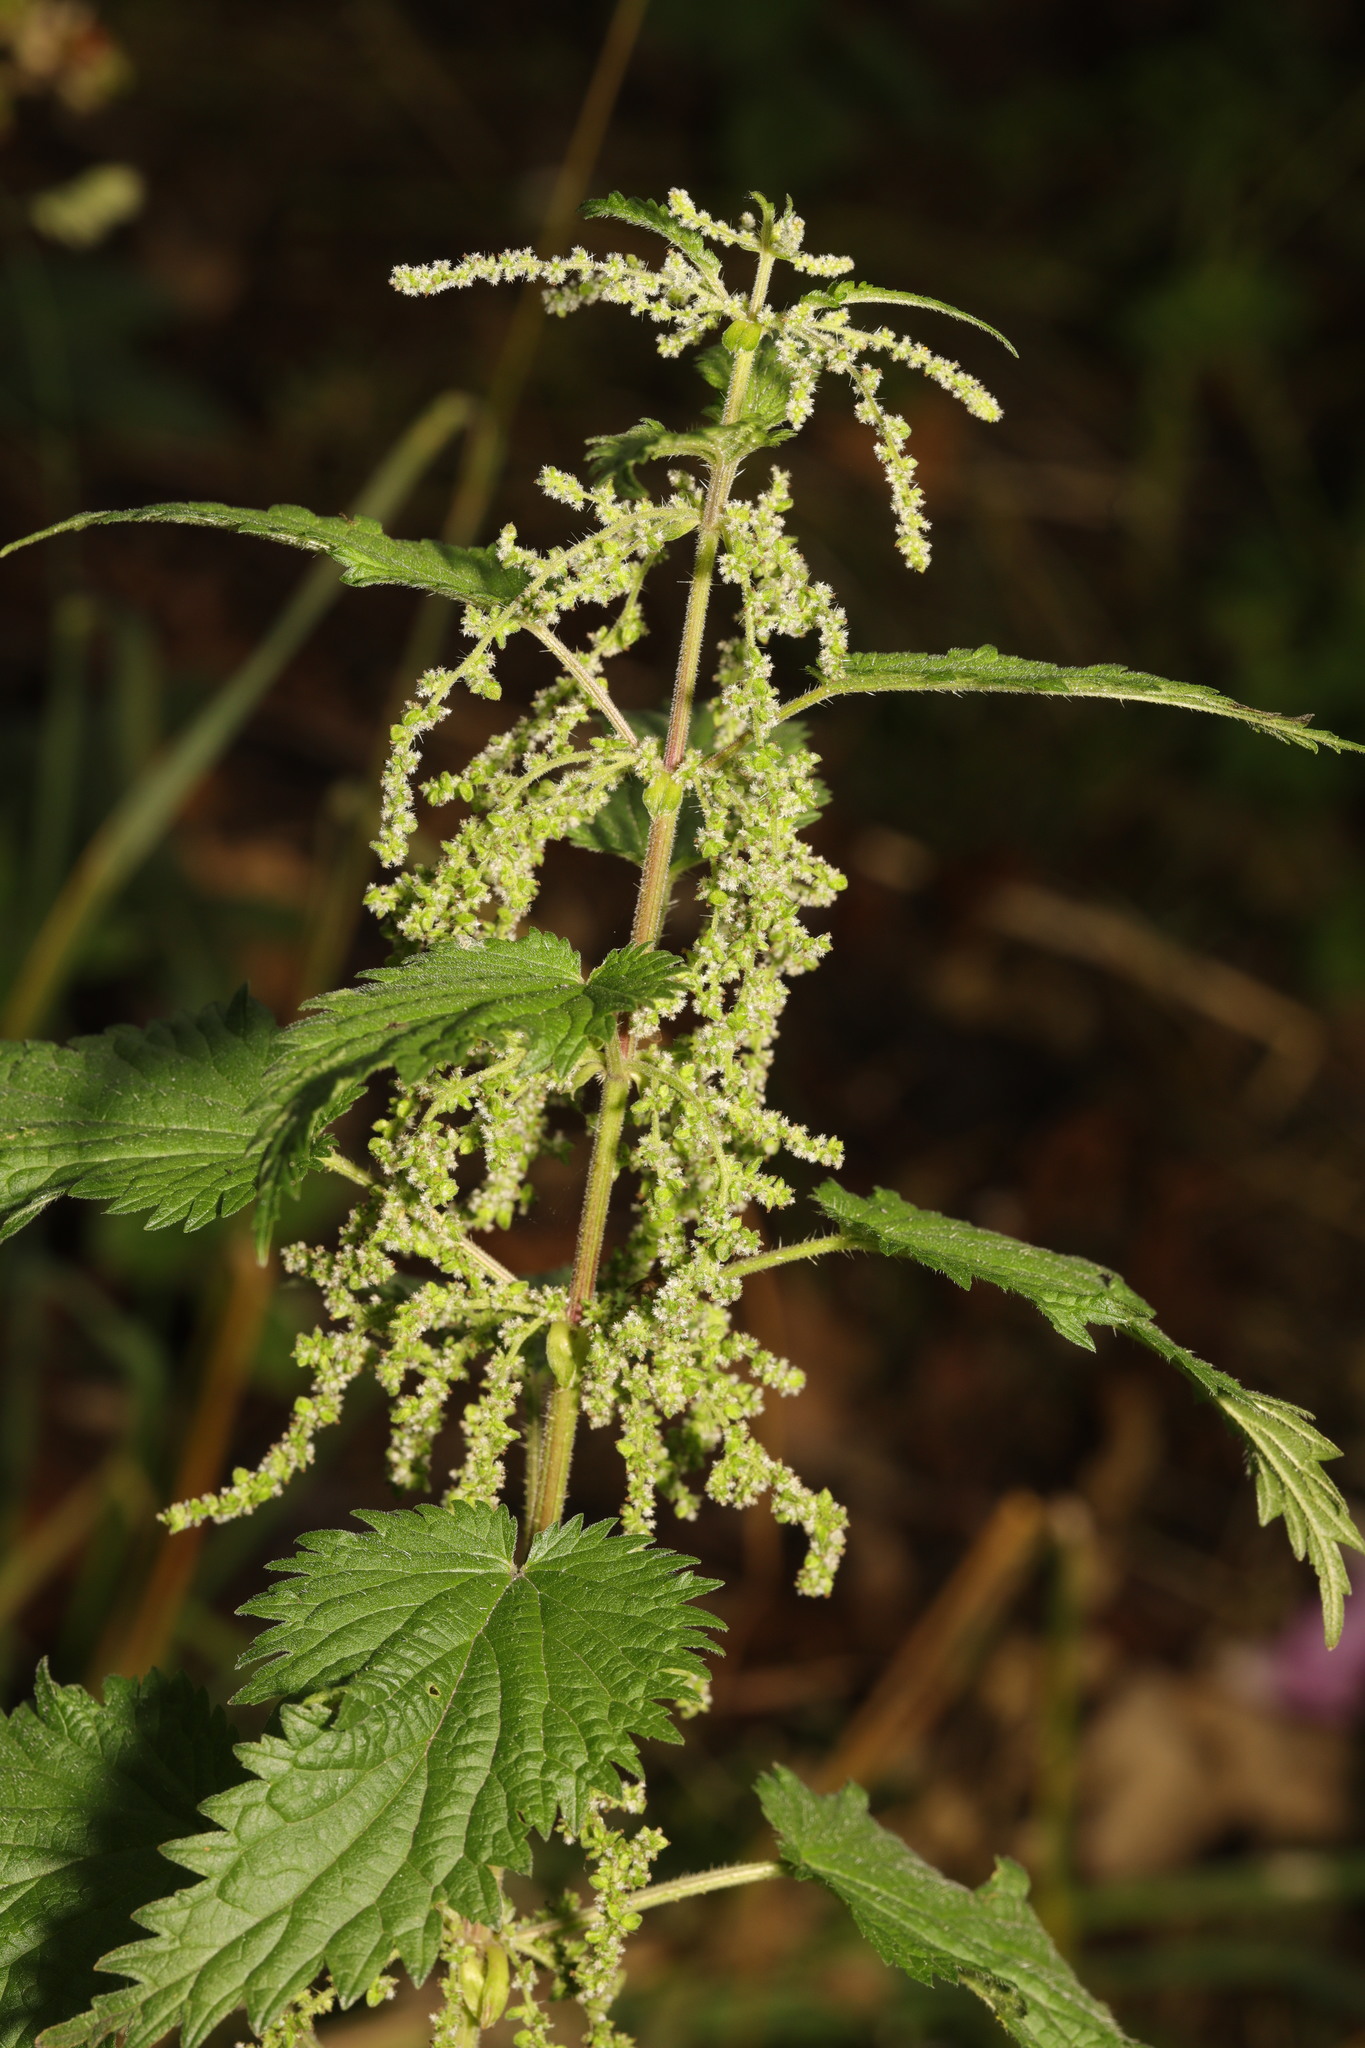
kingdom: Plantae
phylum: Tracheophyta
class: Magnoliopsida
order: Rosales
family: Urticaceae
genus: Urtica
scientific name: Urtica dioica
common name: Common nettle
